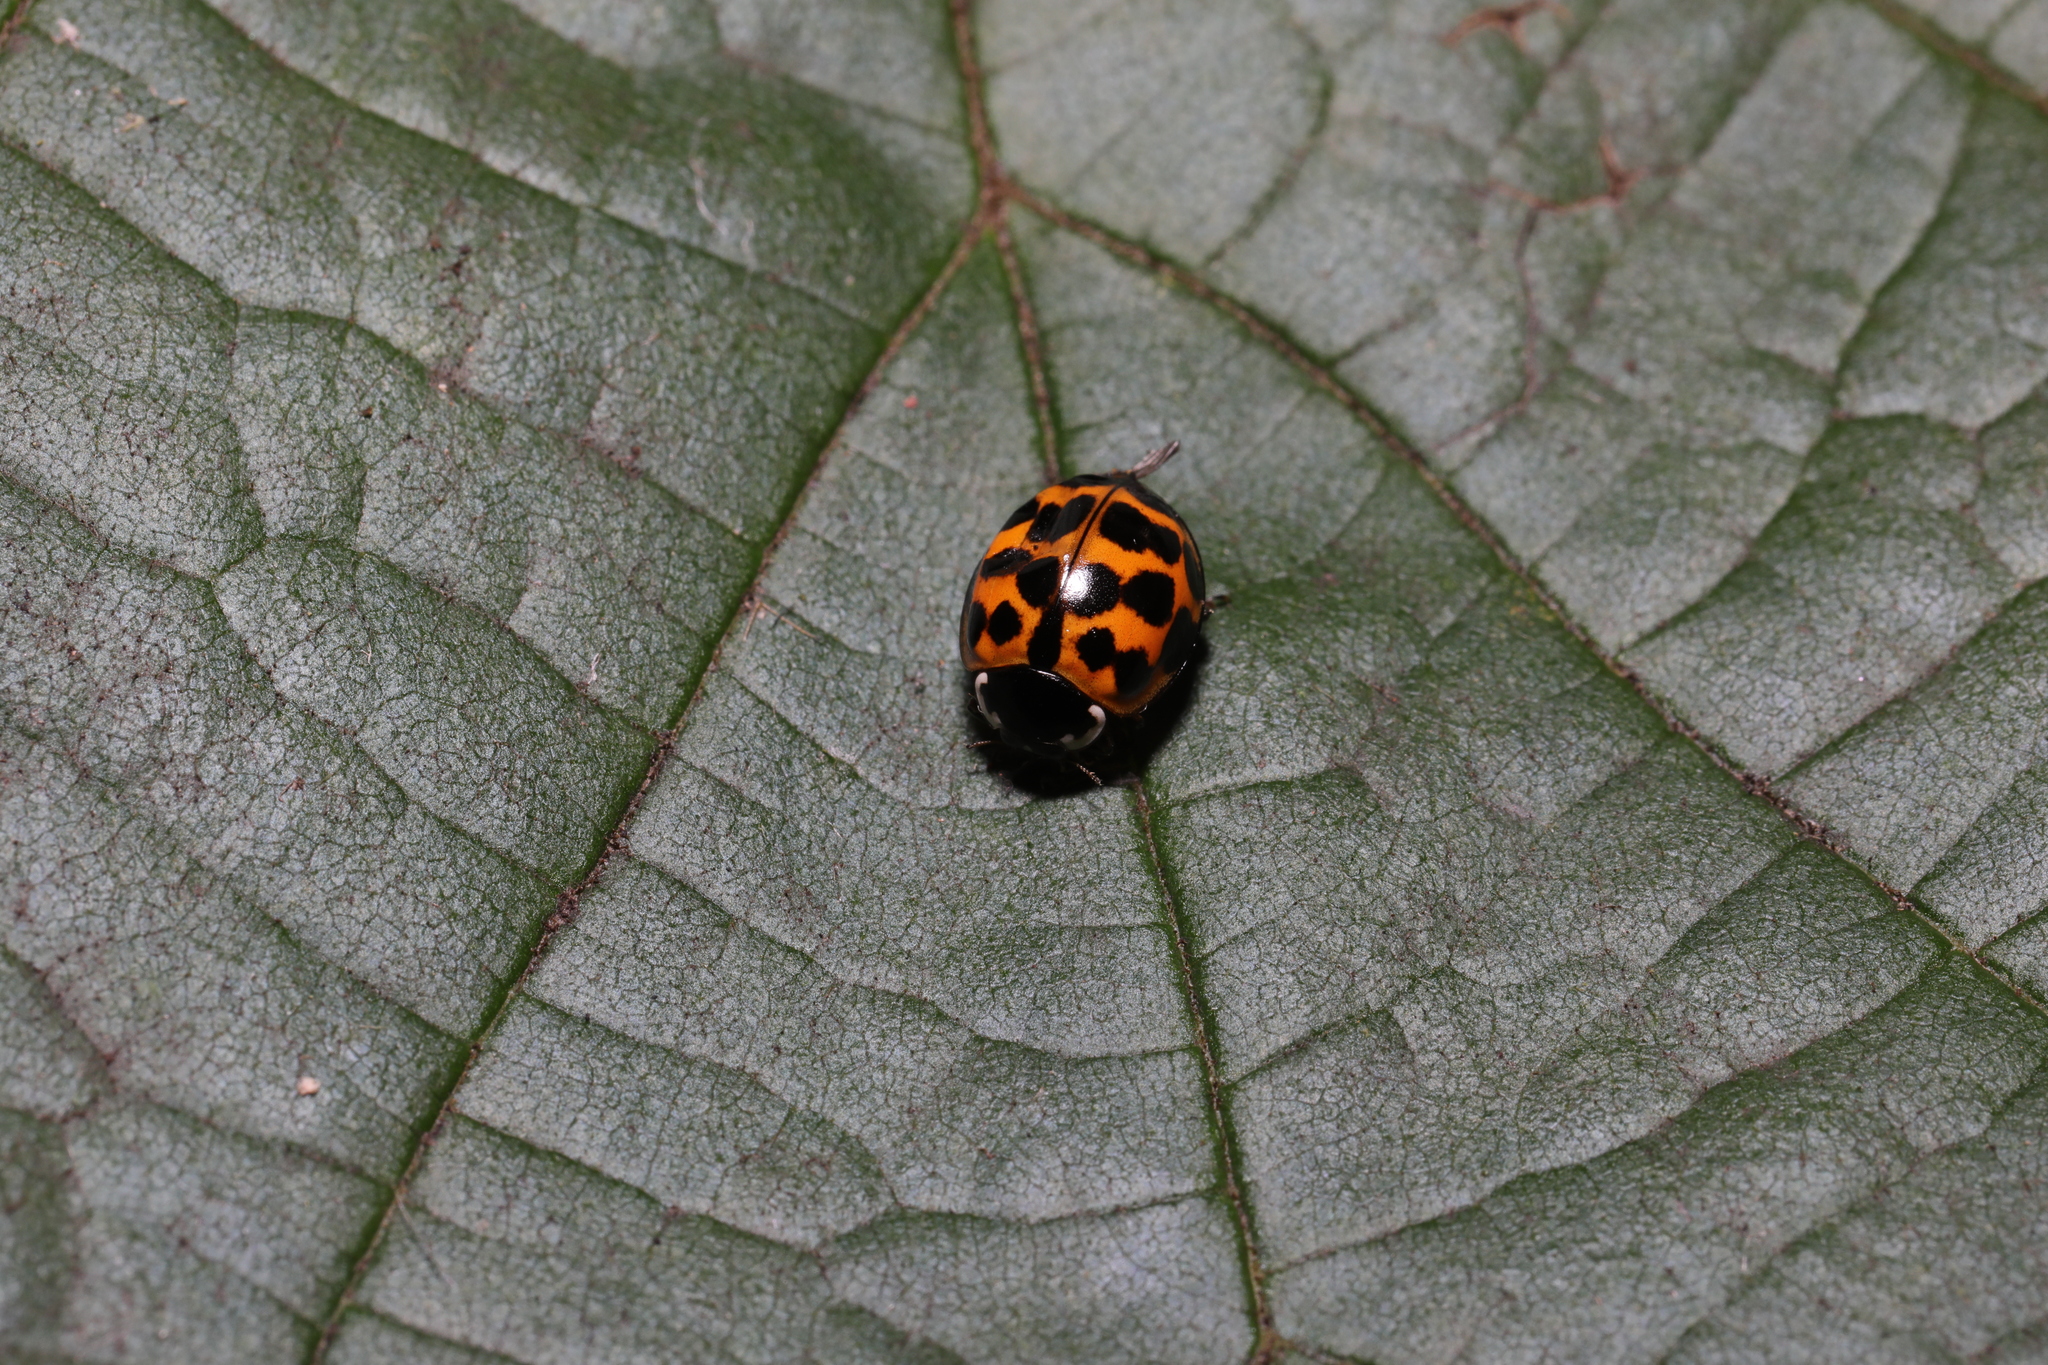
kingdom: Animalia
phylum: Arthropoda
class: Insecta
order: Coleoptera
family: Coccinellidae
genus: Harmonia
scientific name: Harmonia axyridis
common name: Harlequin ladybird
